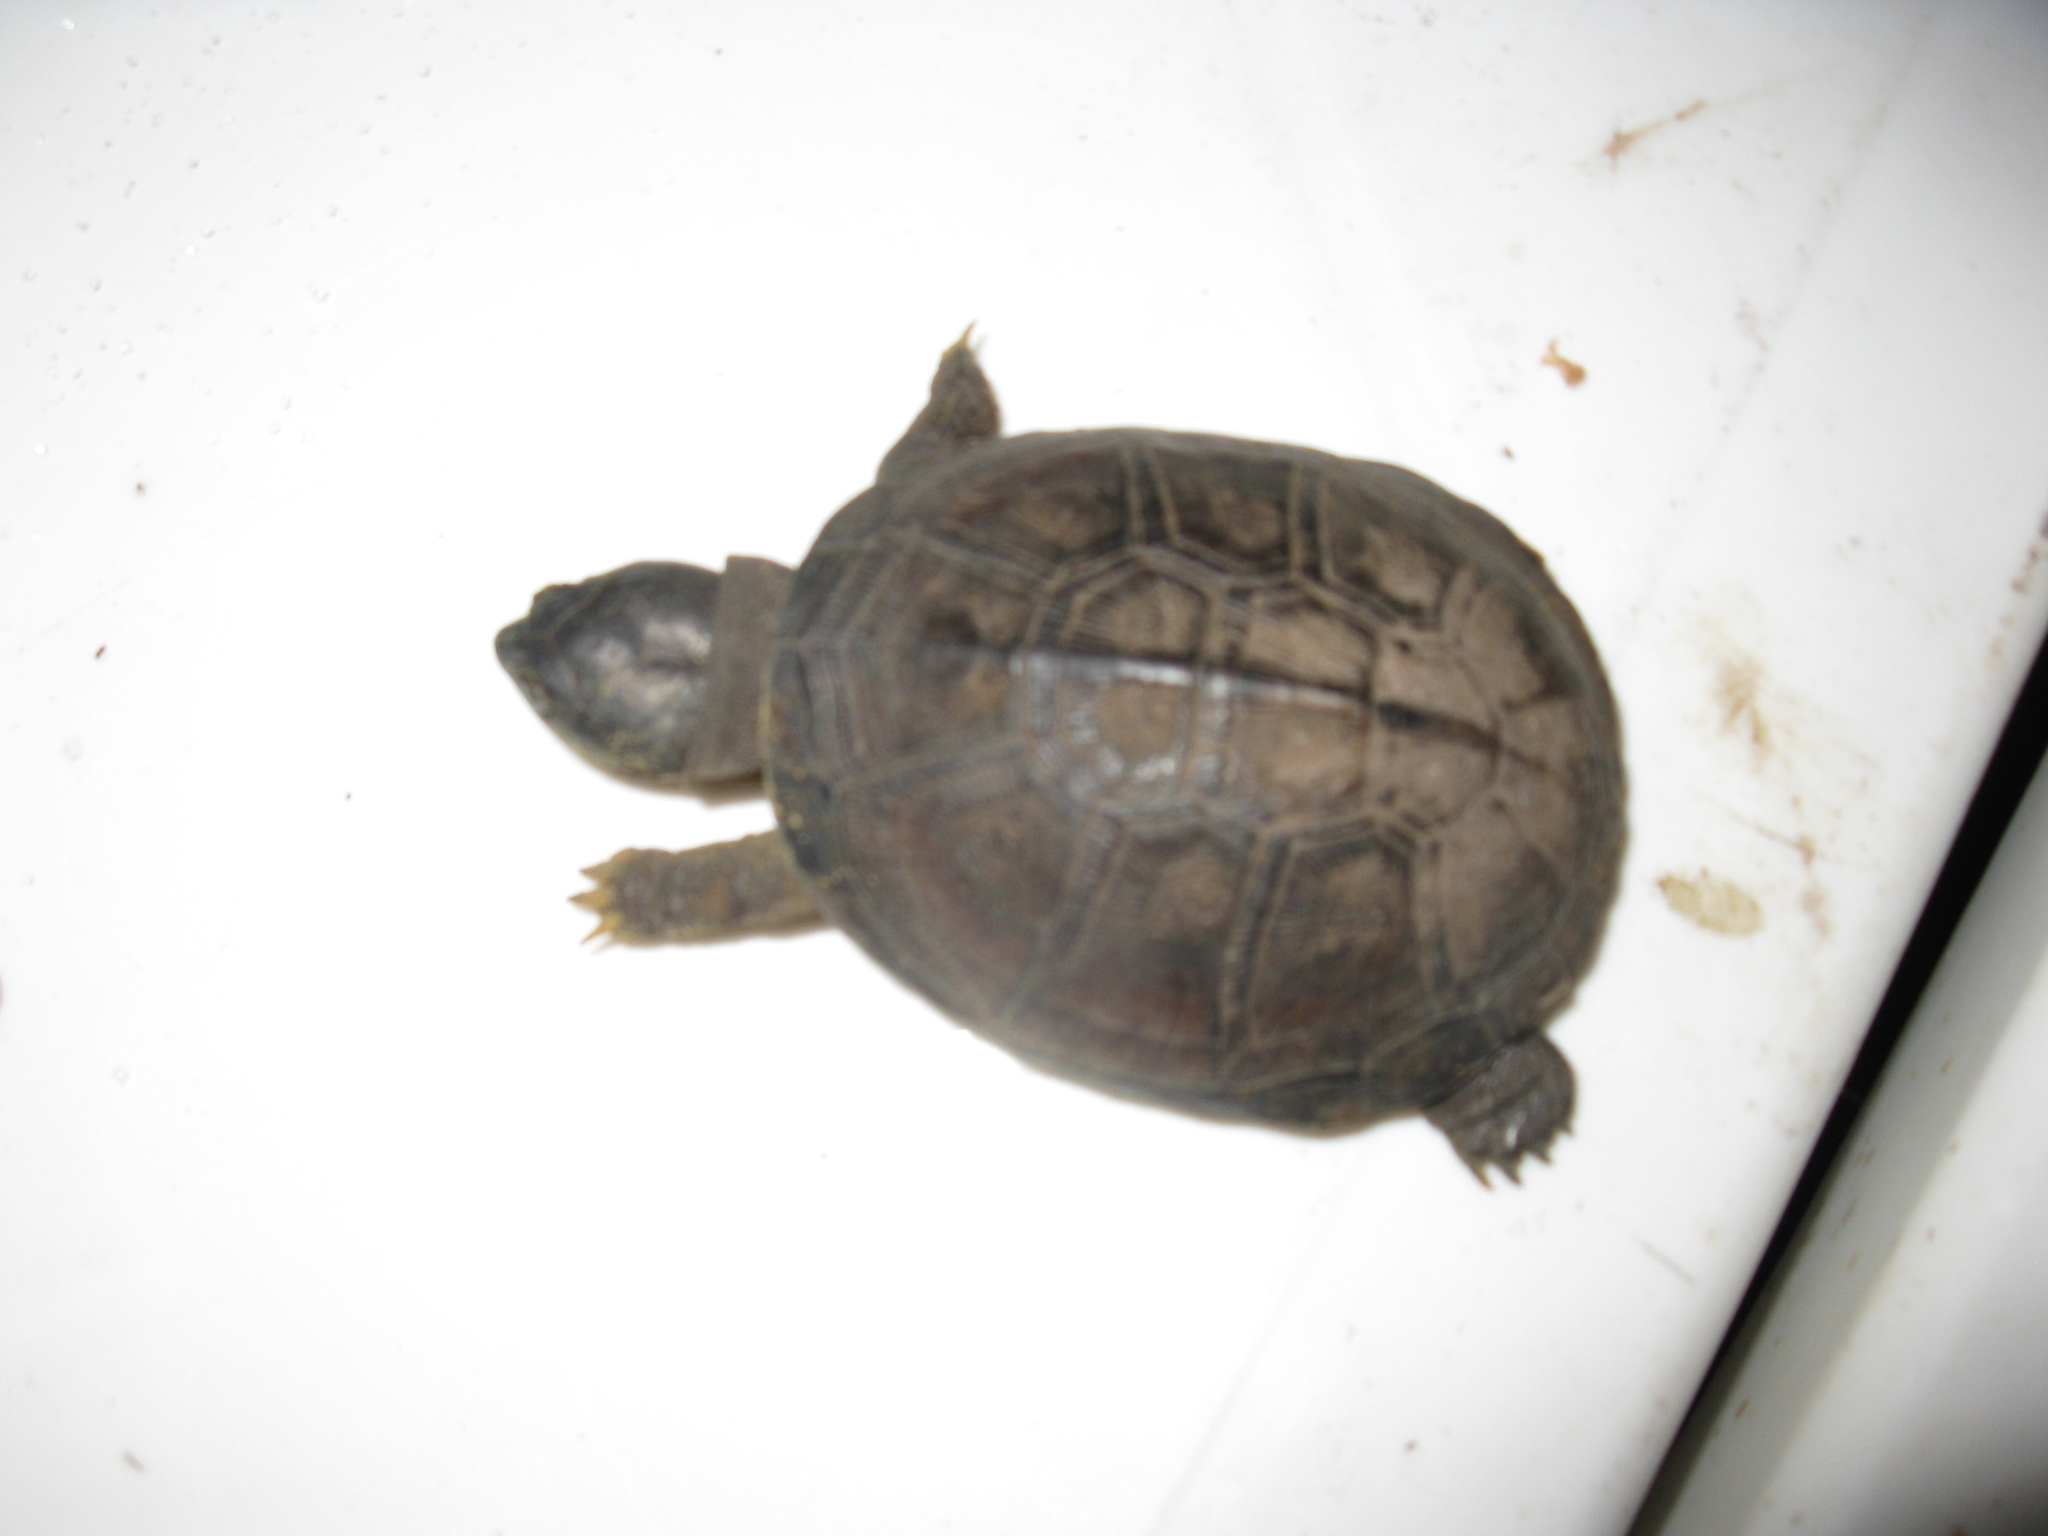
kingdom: Animalia
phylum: Chordata
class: Testudines
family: Pelomedusidae
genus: Pelusios
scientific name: Pelusios castaneus
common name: West african mud turtle
